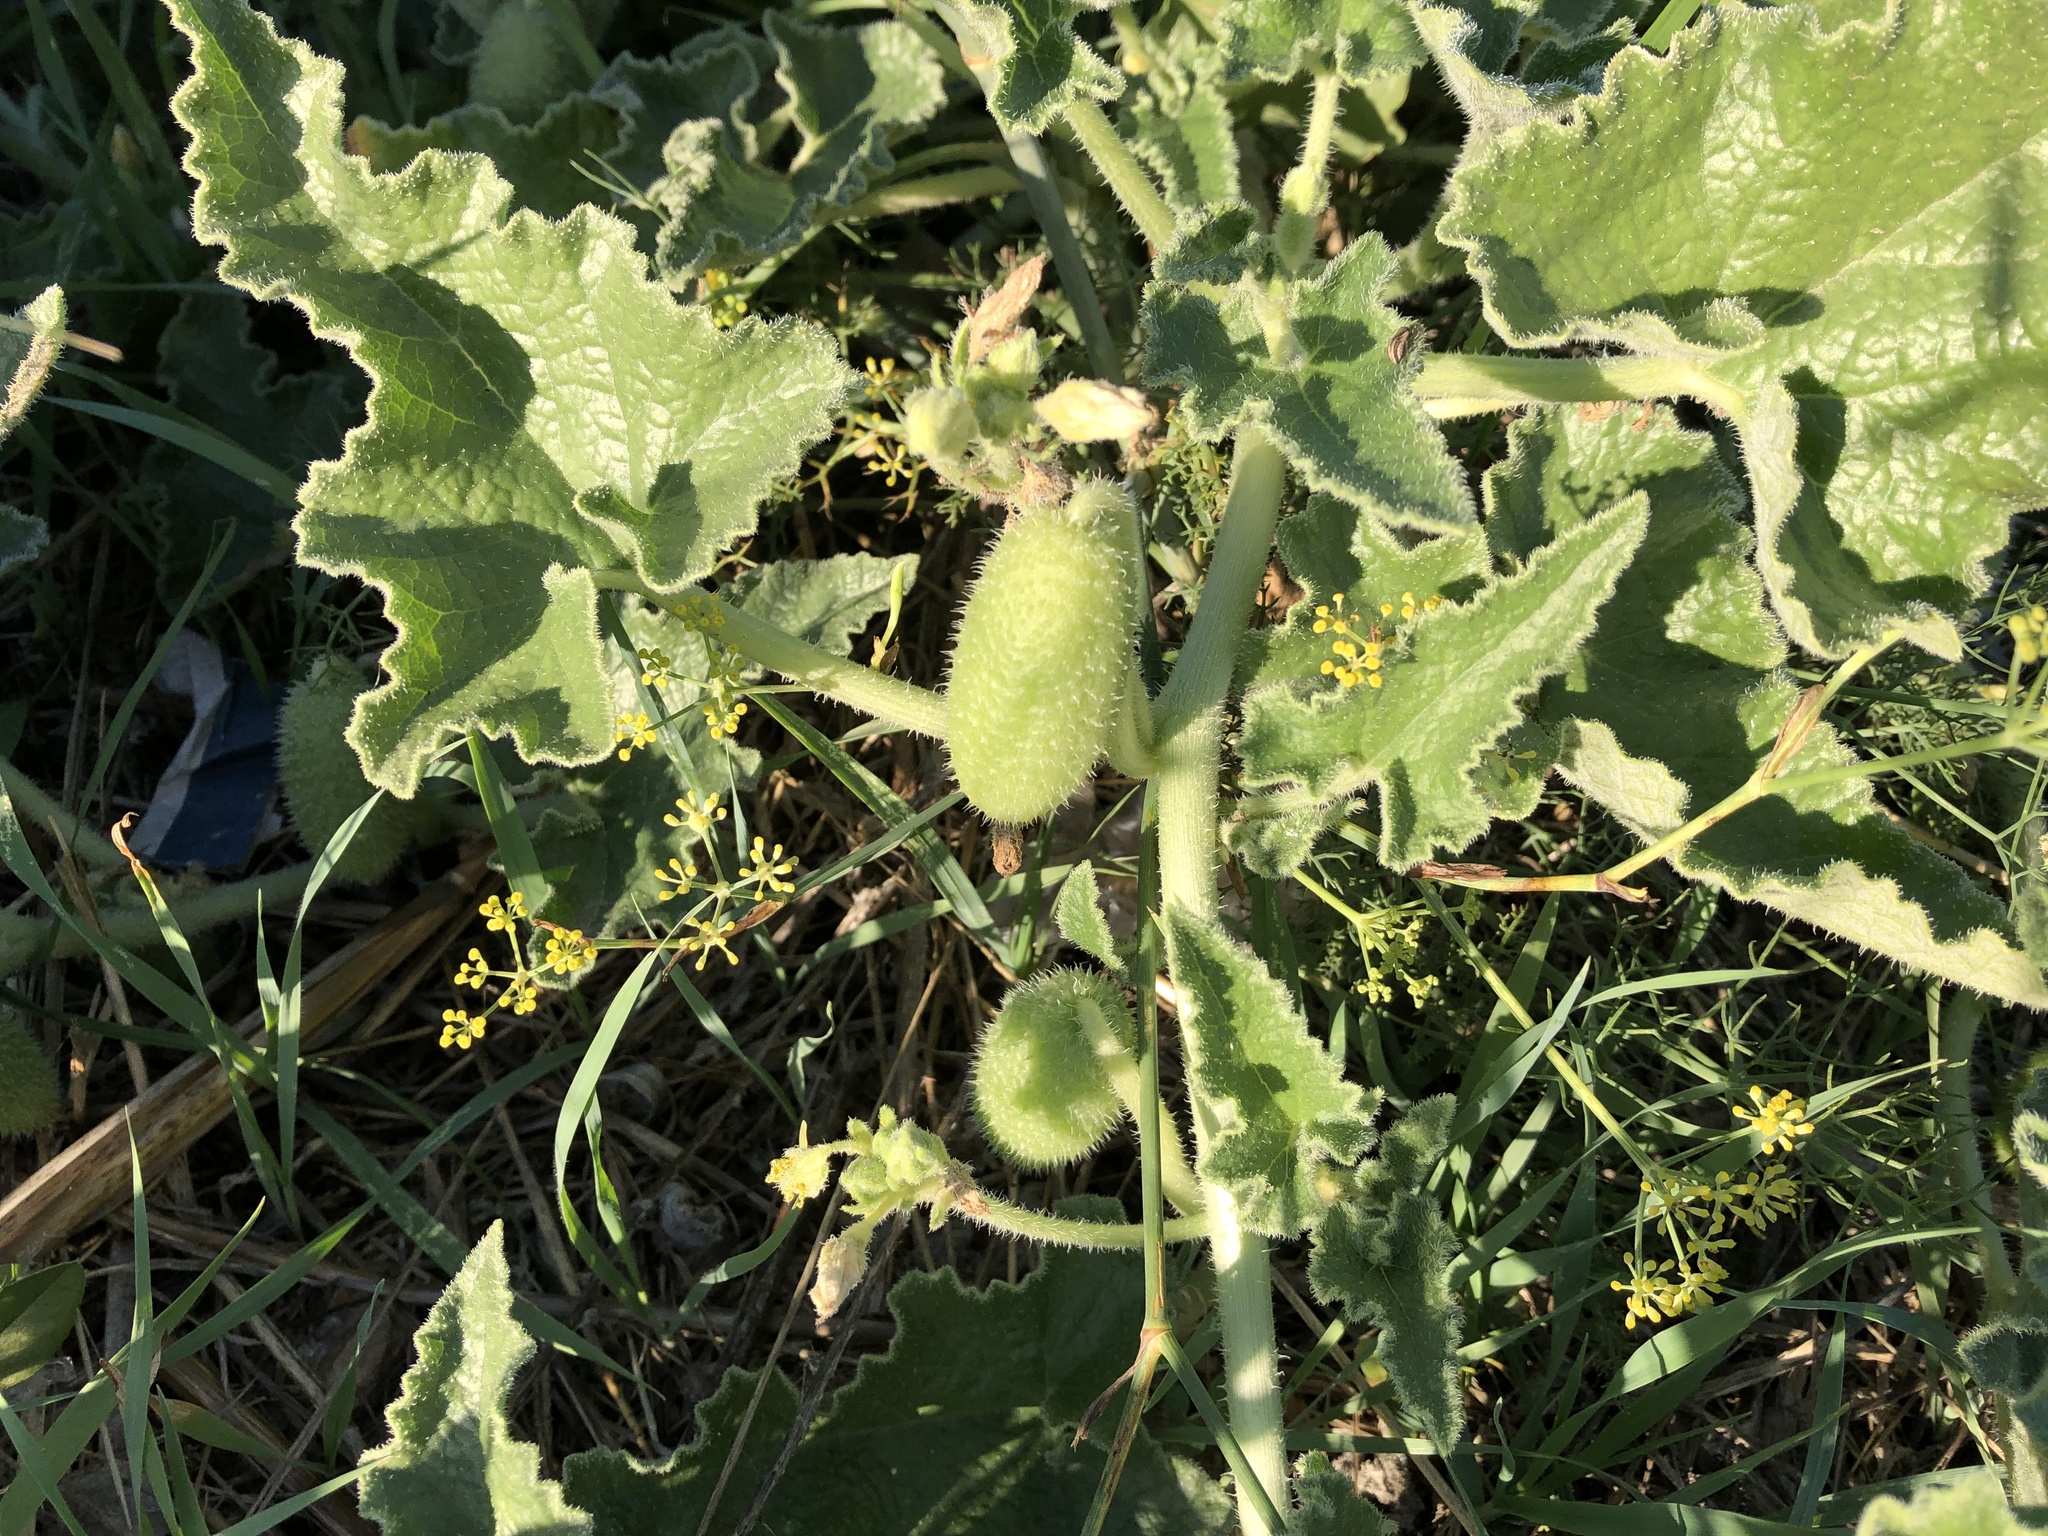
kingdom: Plantae
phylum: Tracheophyta
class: Magnoliopsida
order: Cucurbitales
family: Cucurbitaceae
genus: Ecballium
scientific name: Ecballium elaterium
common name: Squirting cucumber
